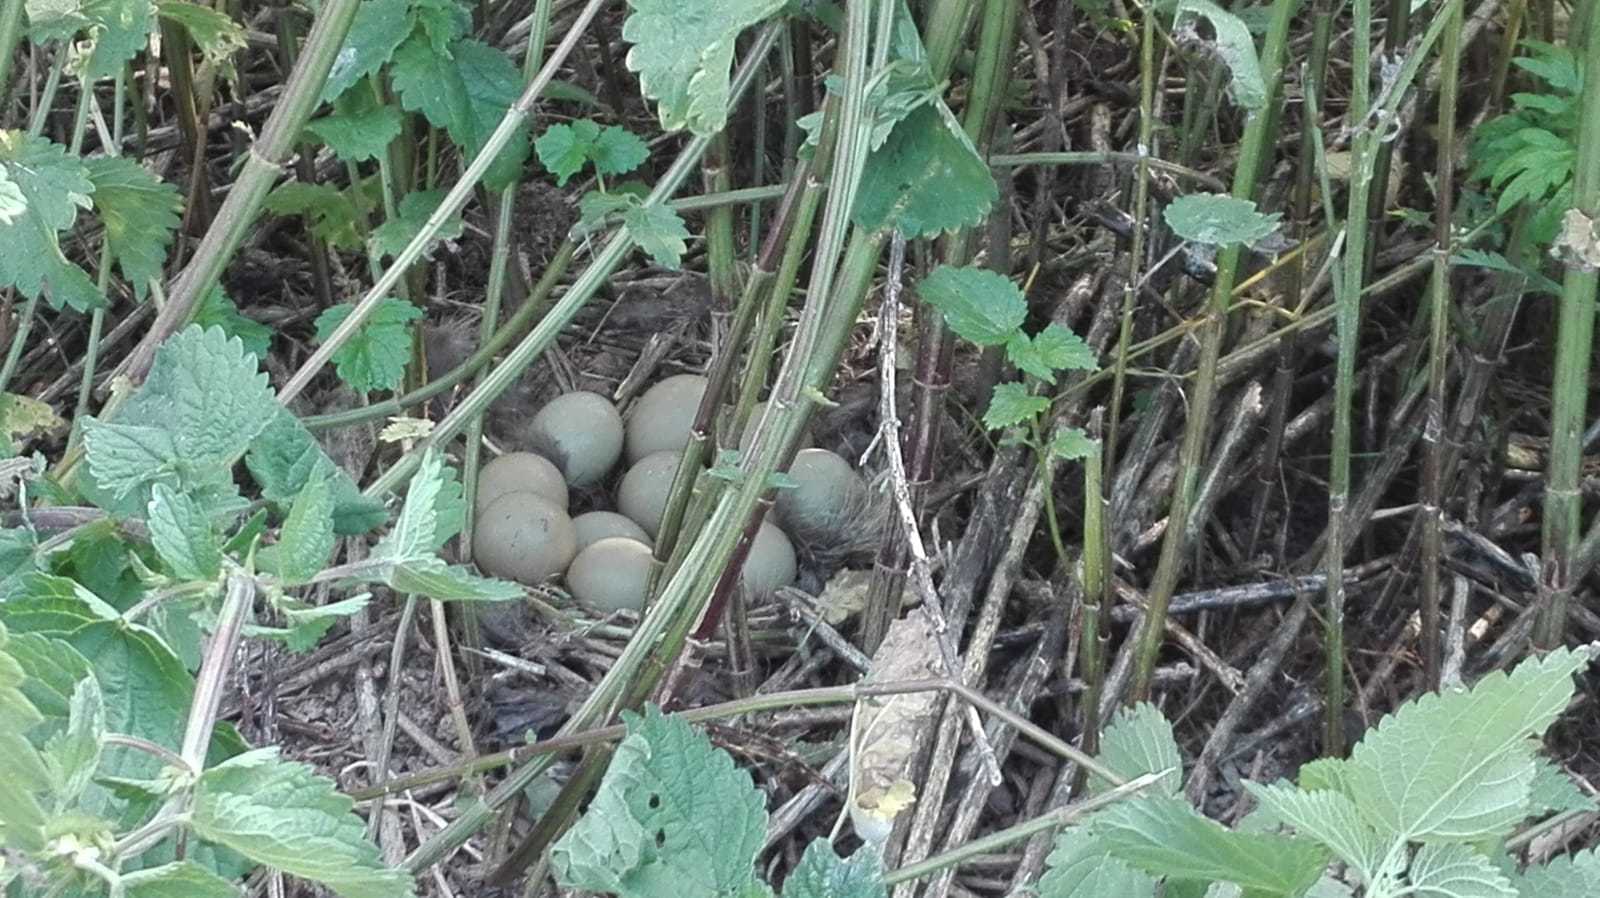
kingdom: Animalia
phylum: Chordata
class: Aves
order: Galliformes
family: Phasianidae
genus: Phasianus
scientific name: Phasianus colchicus
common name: Common pheasant
